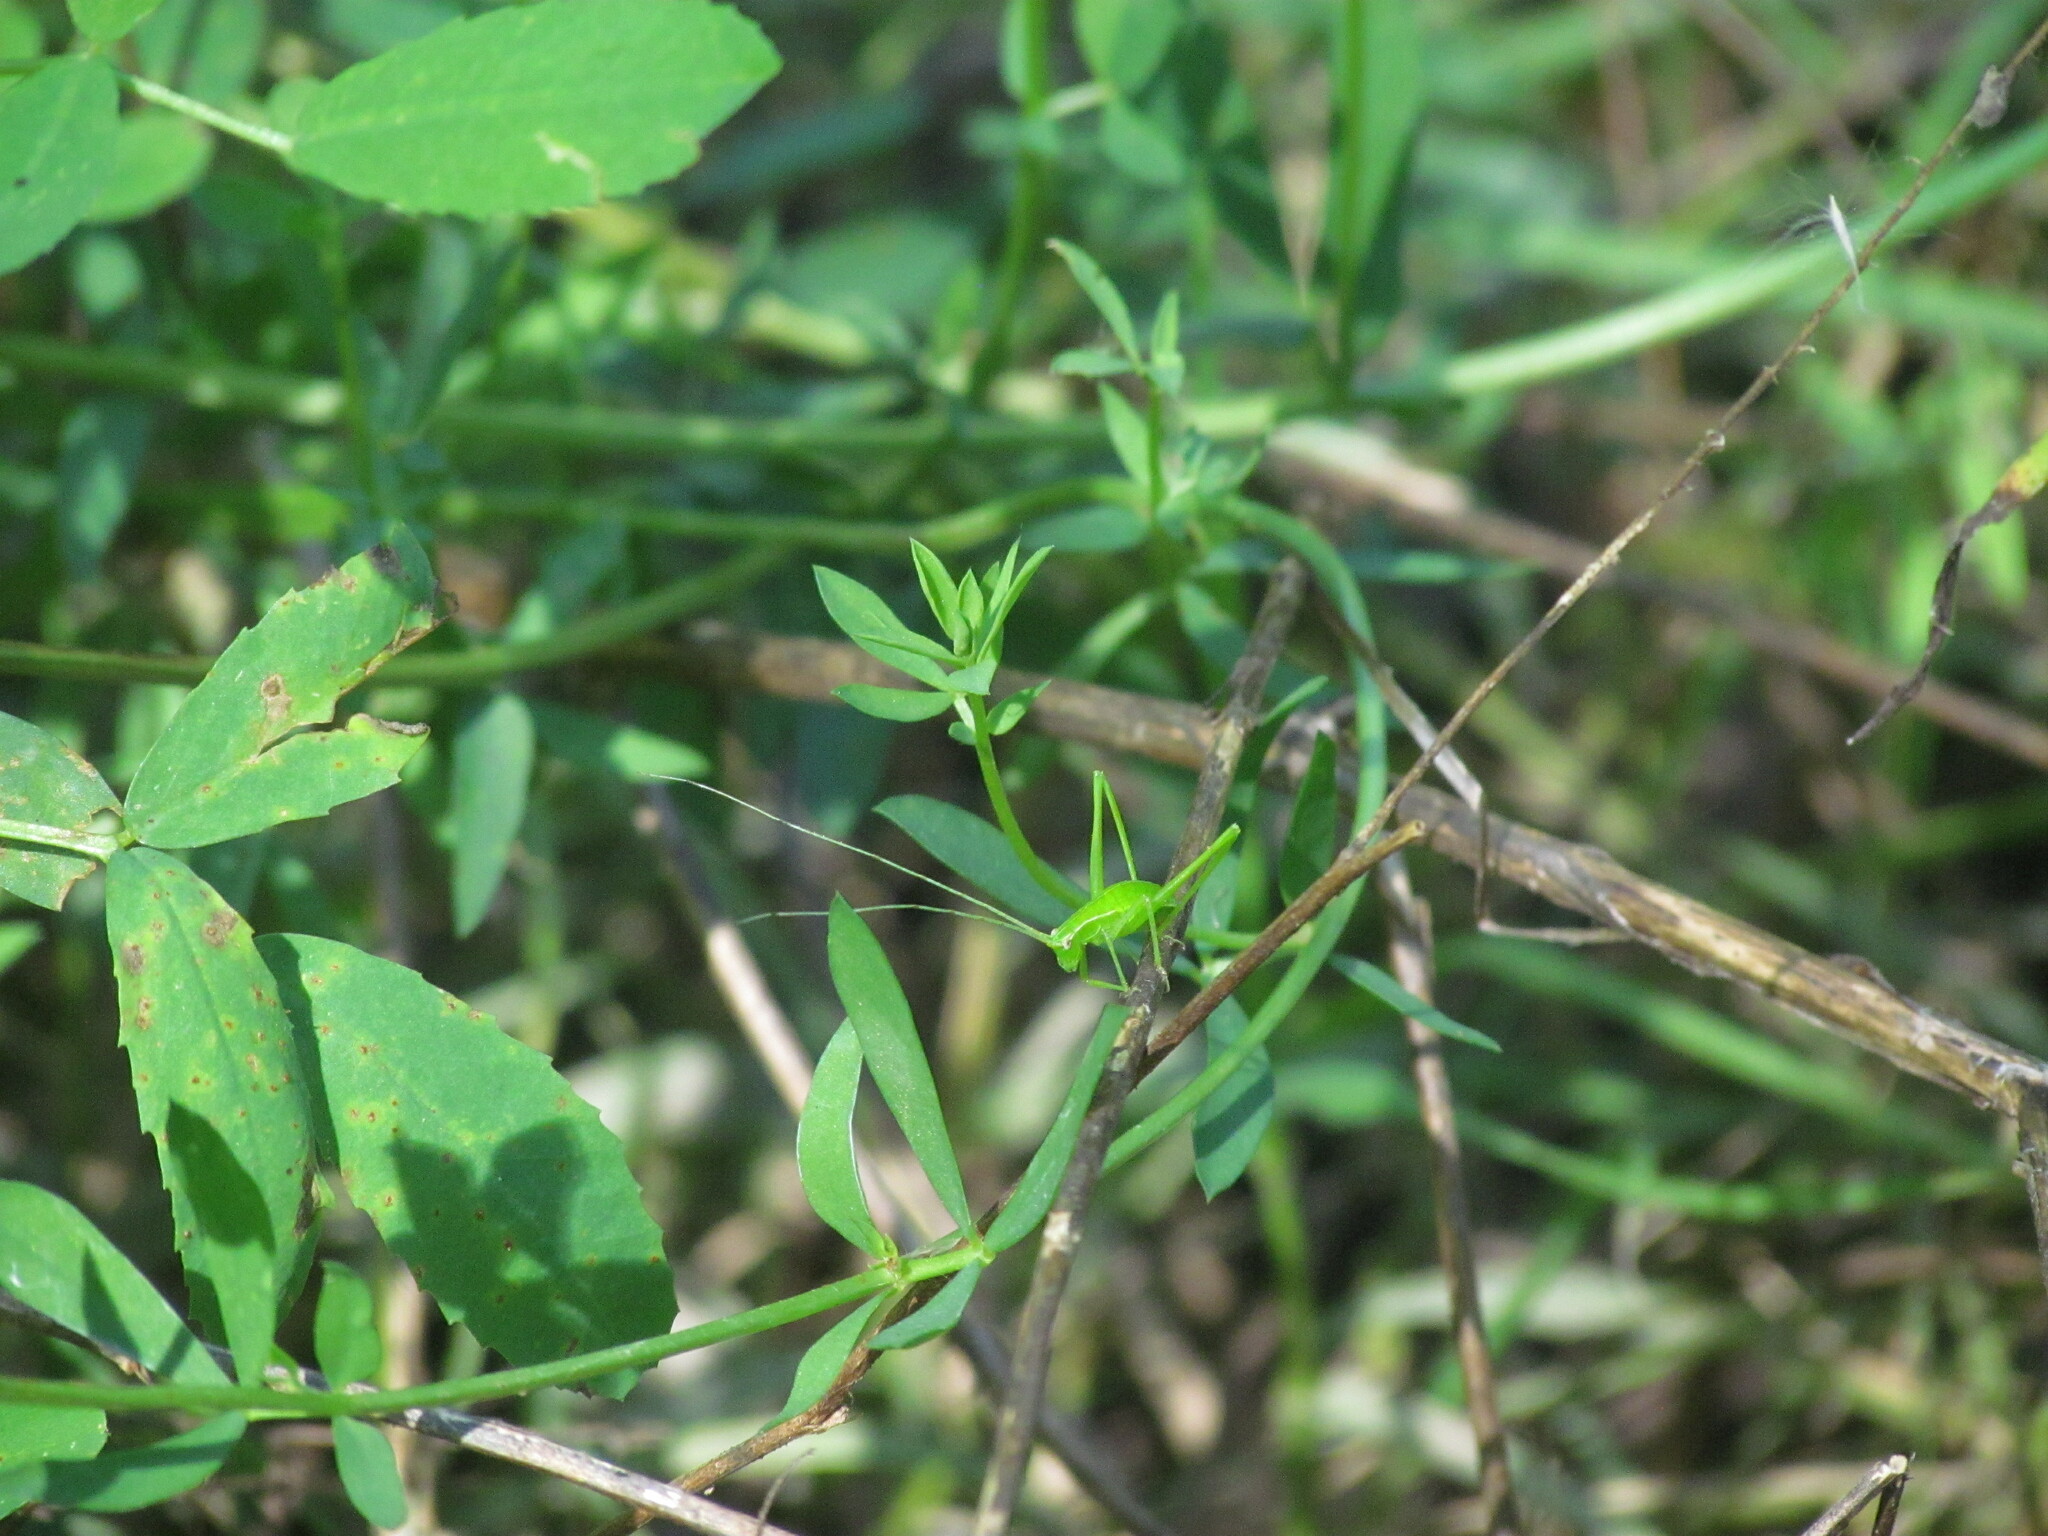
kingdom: Animalia
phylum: Arthropoda
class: Insecta
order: Orthoptera
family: Tettigoniidae
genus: Hyperophora
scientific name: Hyperophora major
